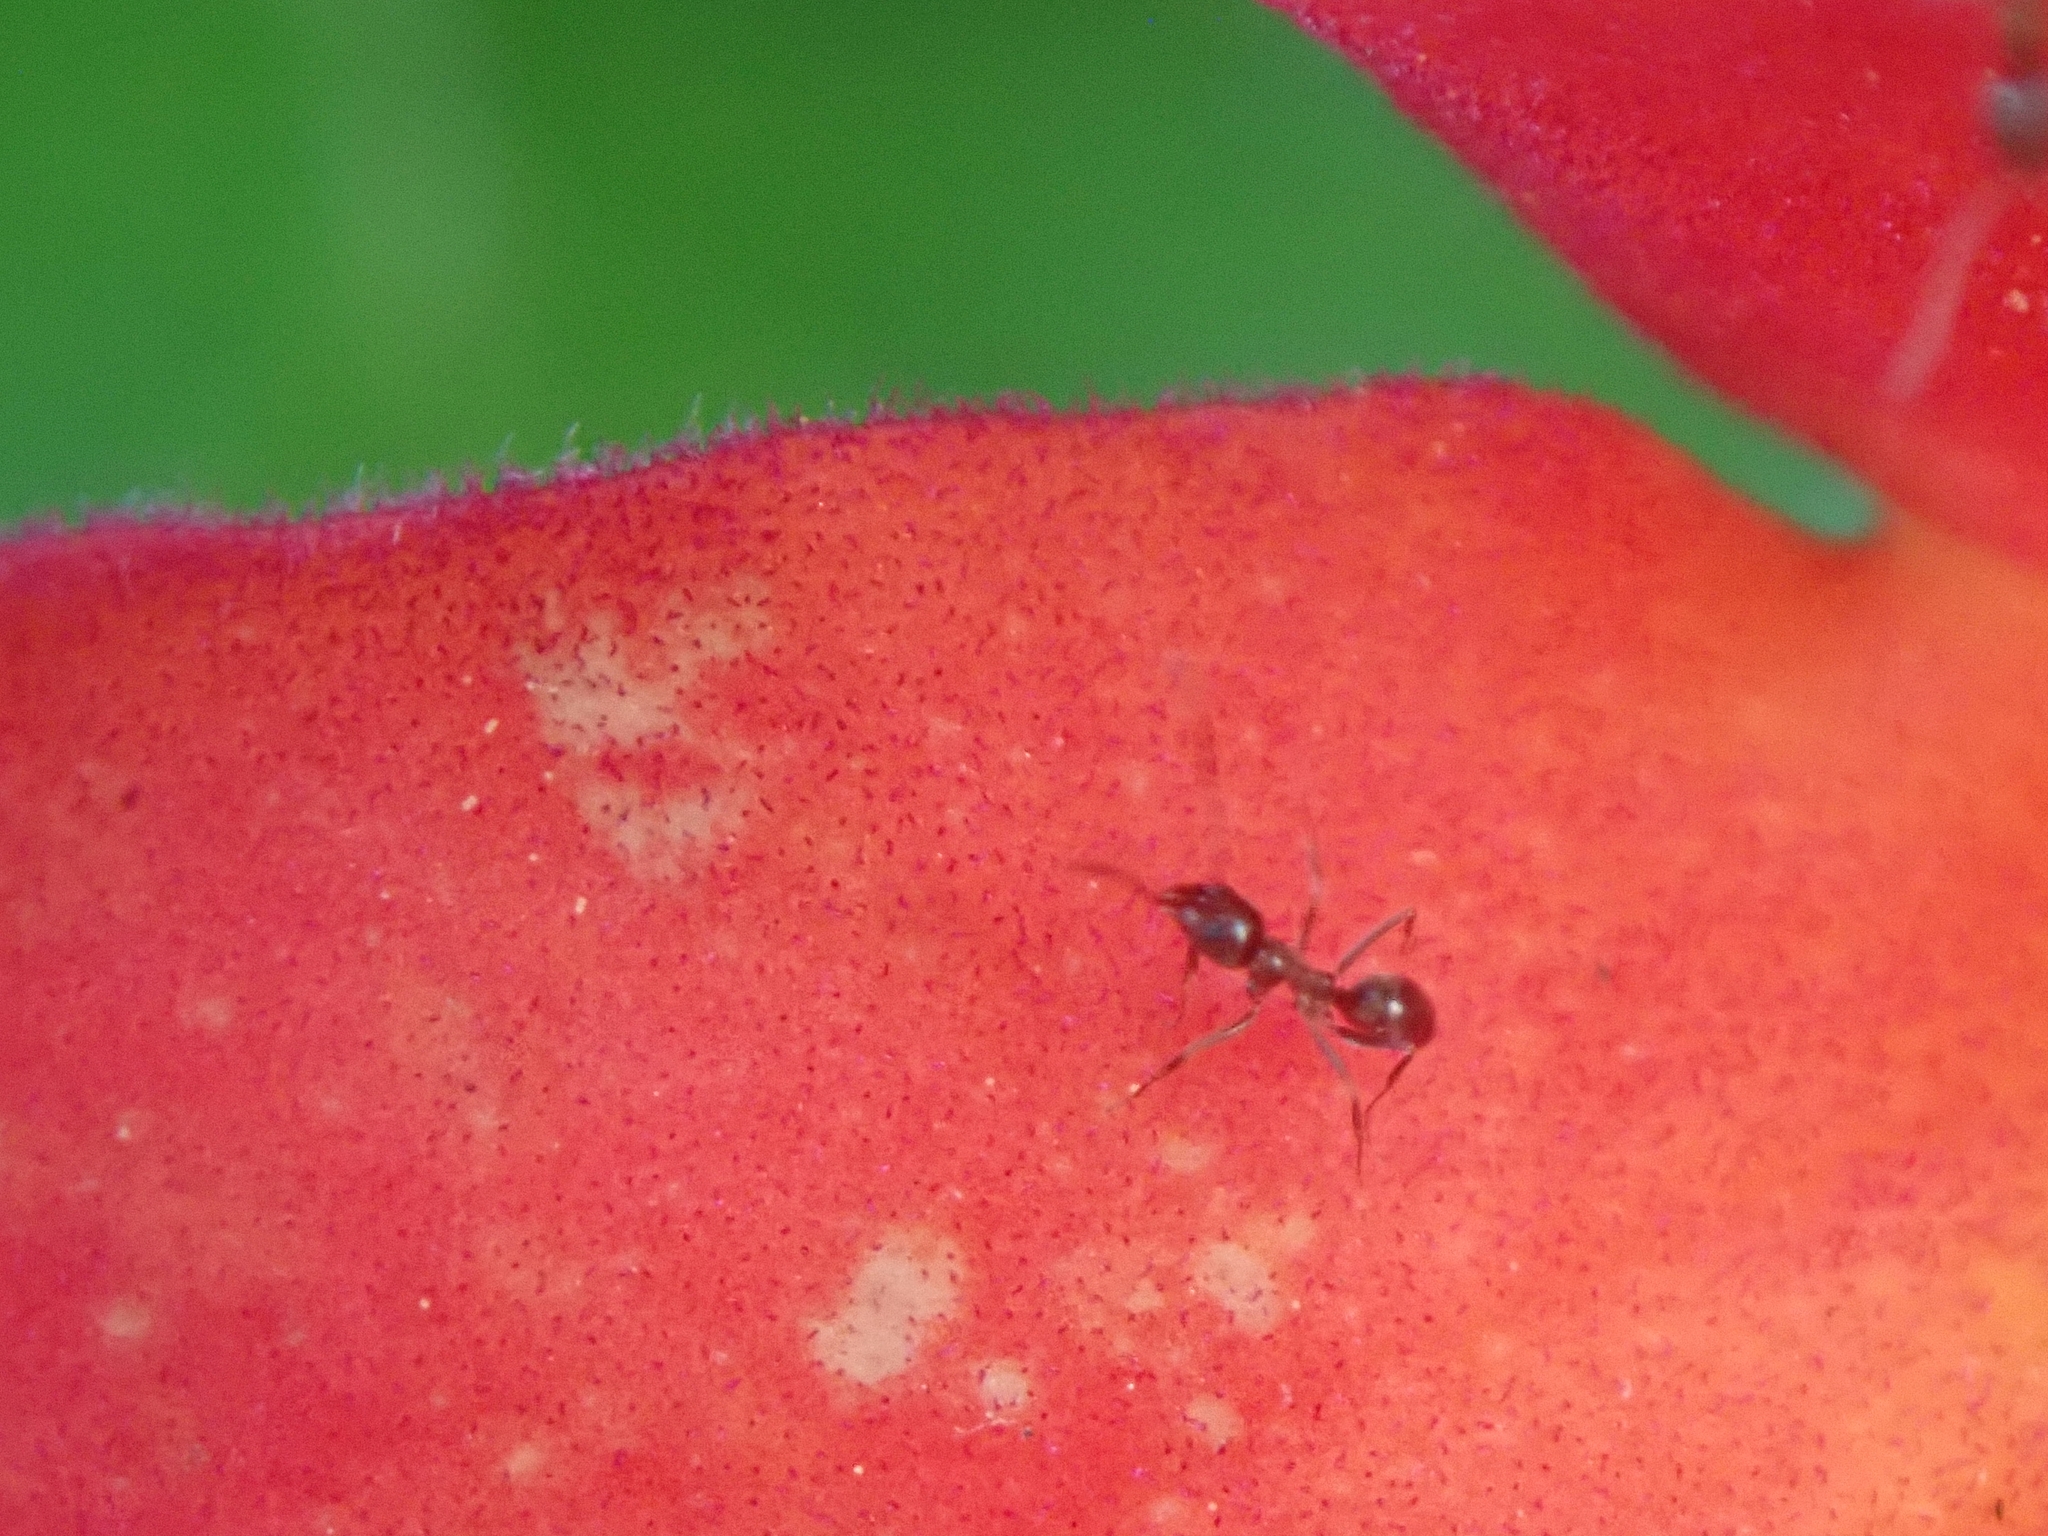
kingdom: Animalia
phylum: Arthropoda
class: Insecta
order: Hymenoptera
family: Formicidae
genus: Linepithema
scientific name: Linepithema humile
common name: Argentine ant
